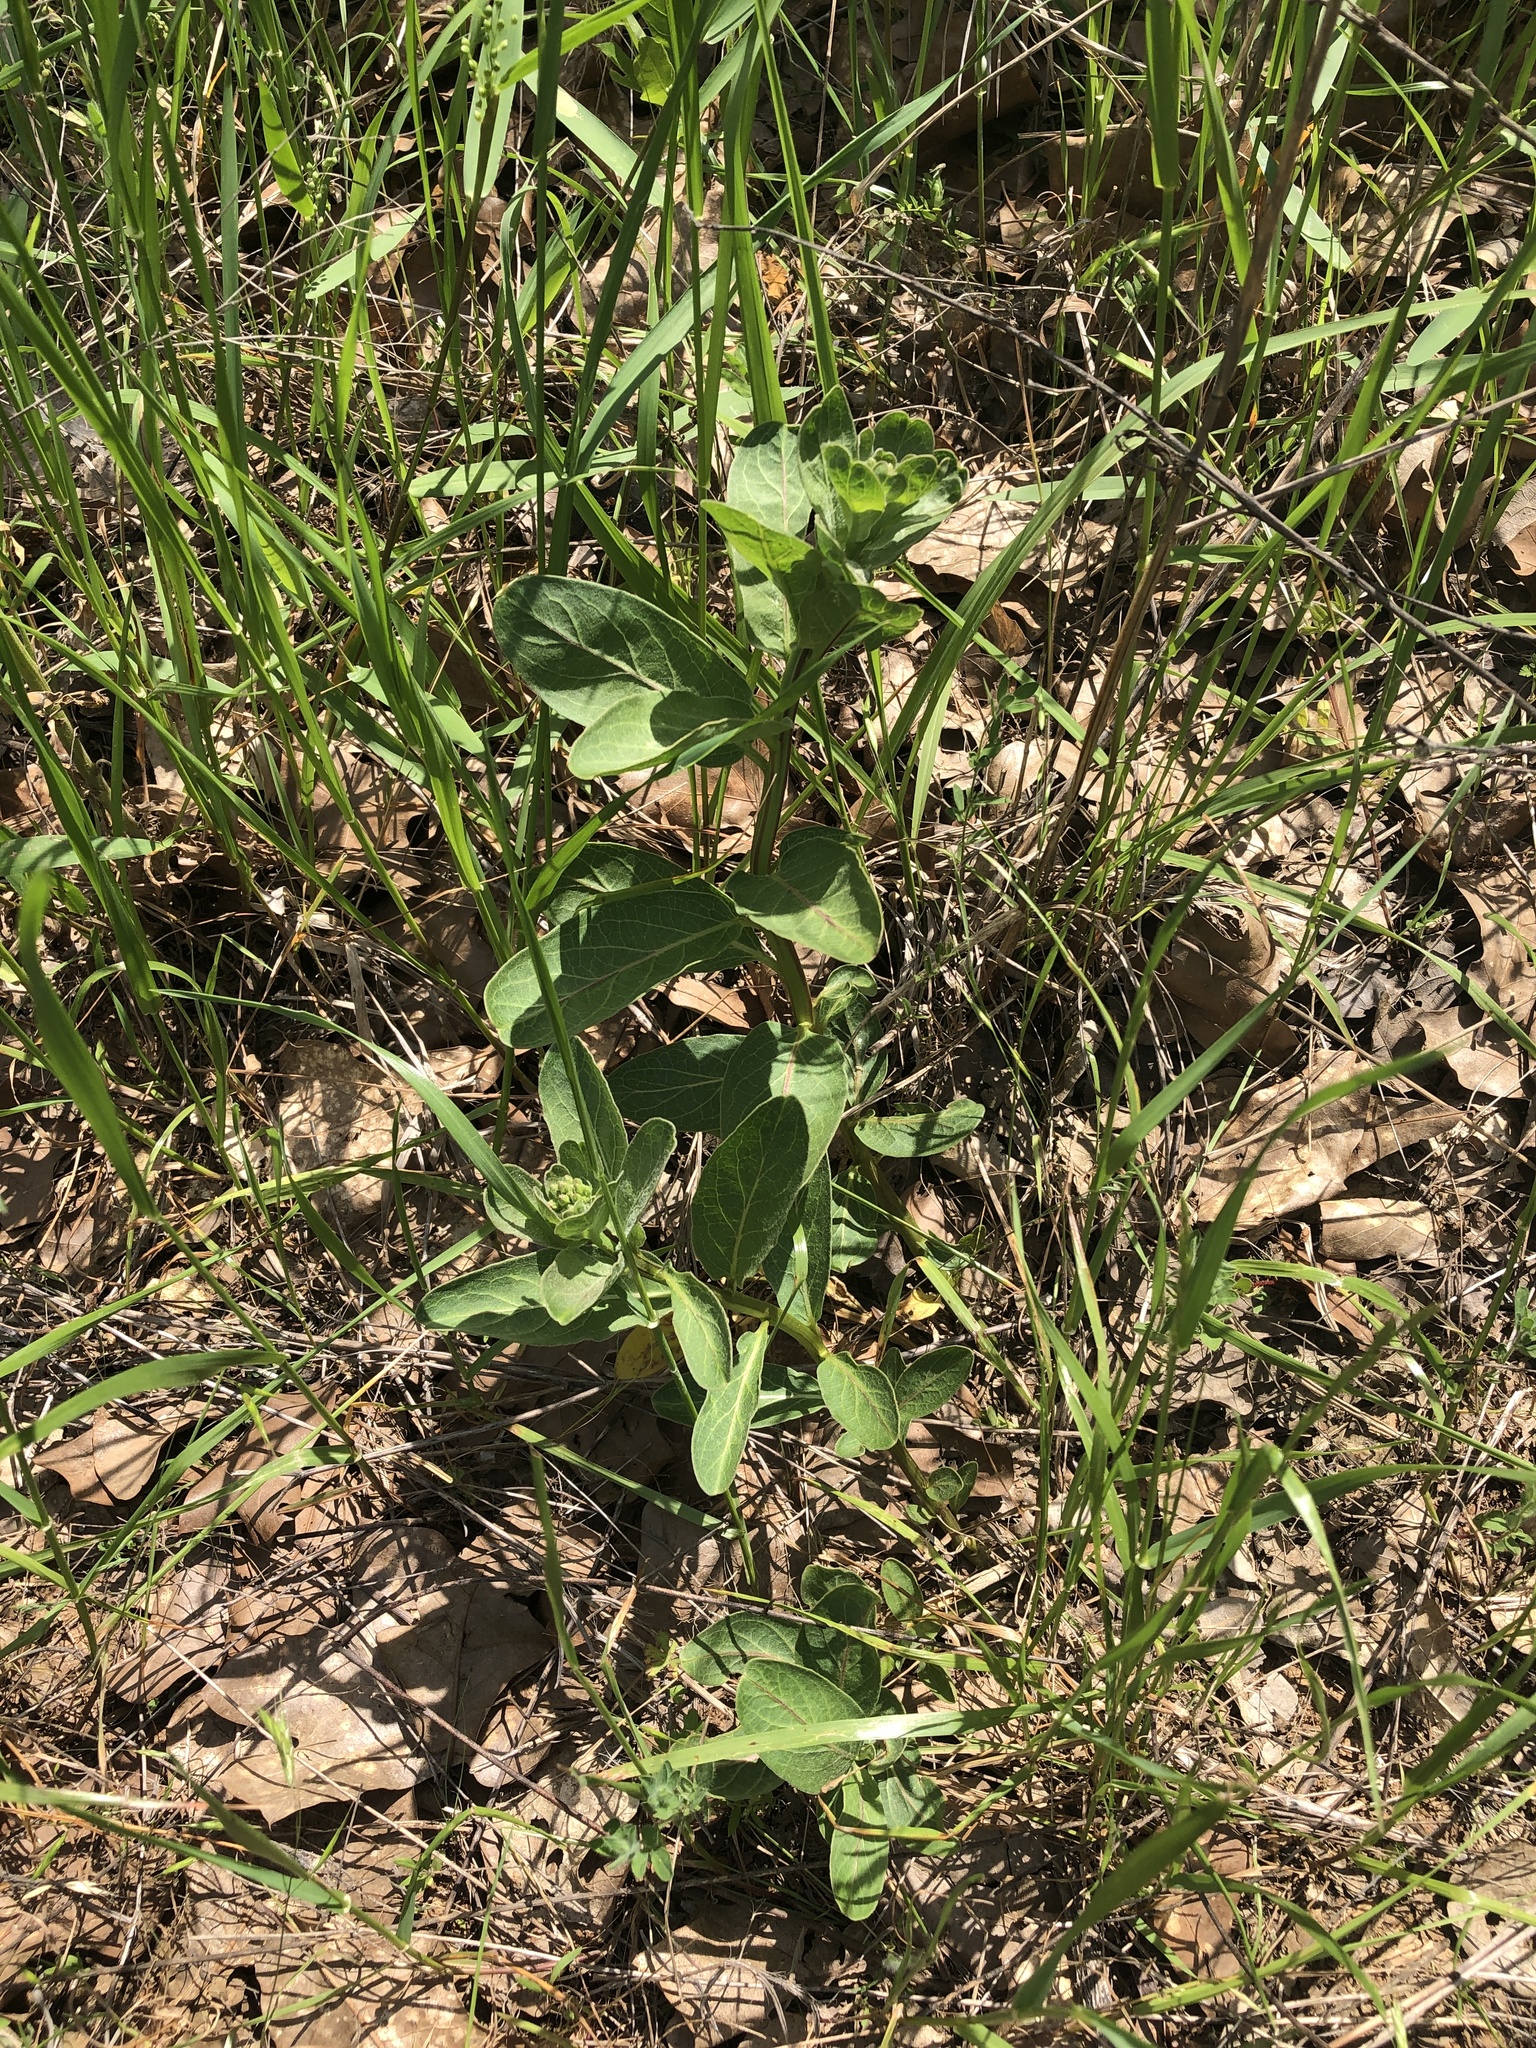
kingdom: Plantae
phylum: Tracheophyta
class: Magnoliopsida
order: Gentianales
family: Apocynaceae
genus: Asclepias
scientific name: Asclepias viridis
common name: Antelope-horns
